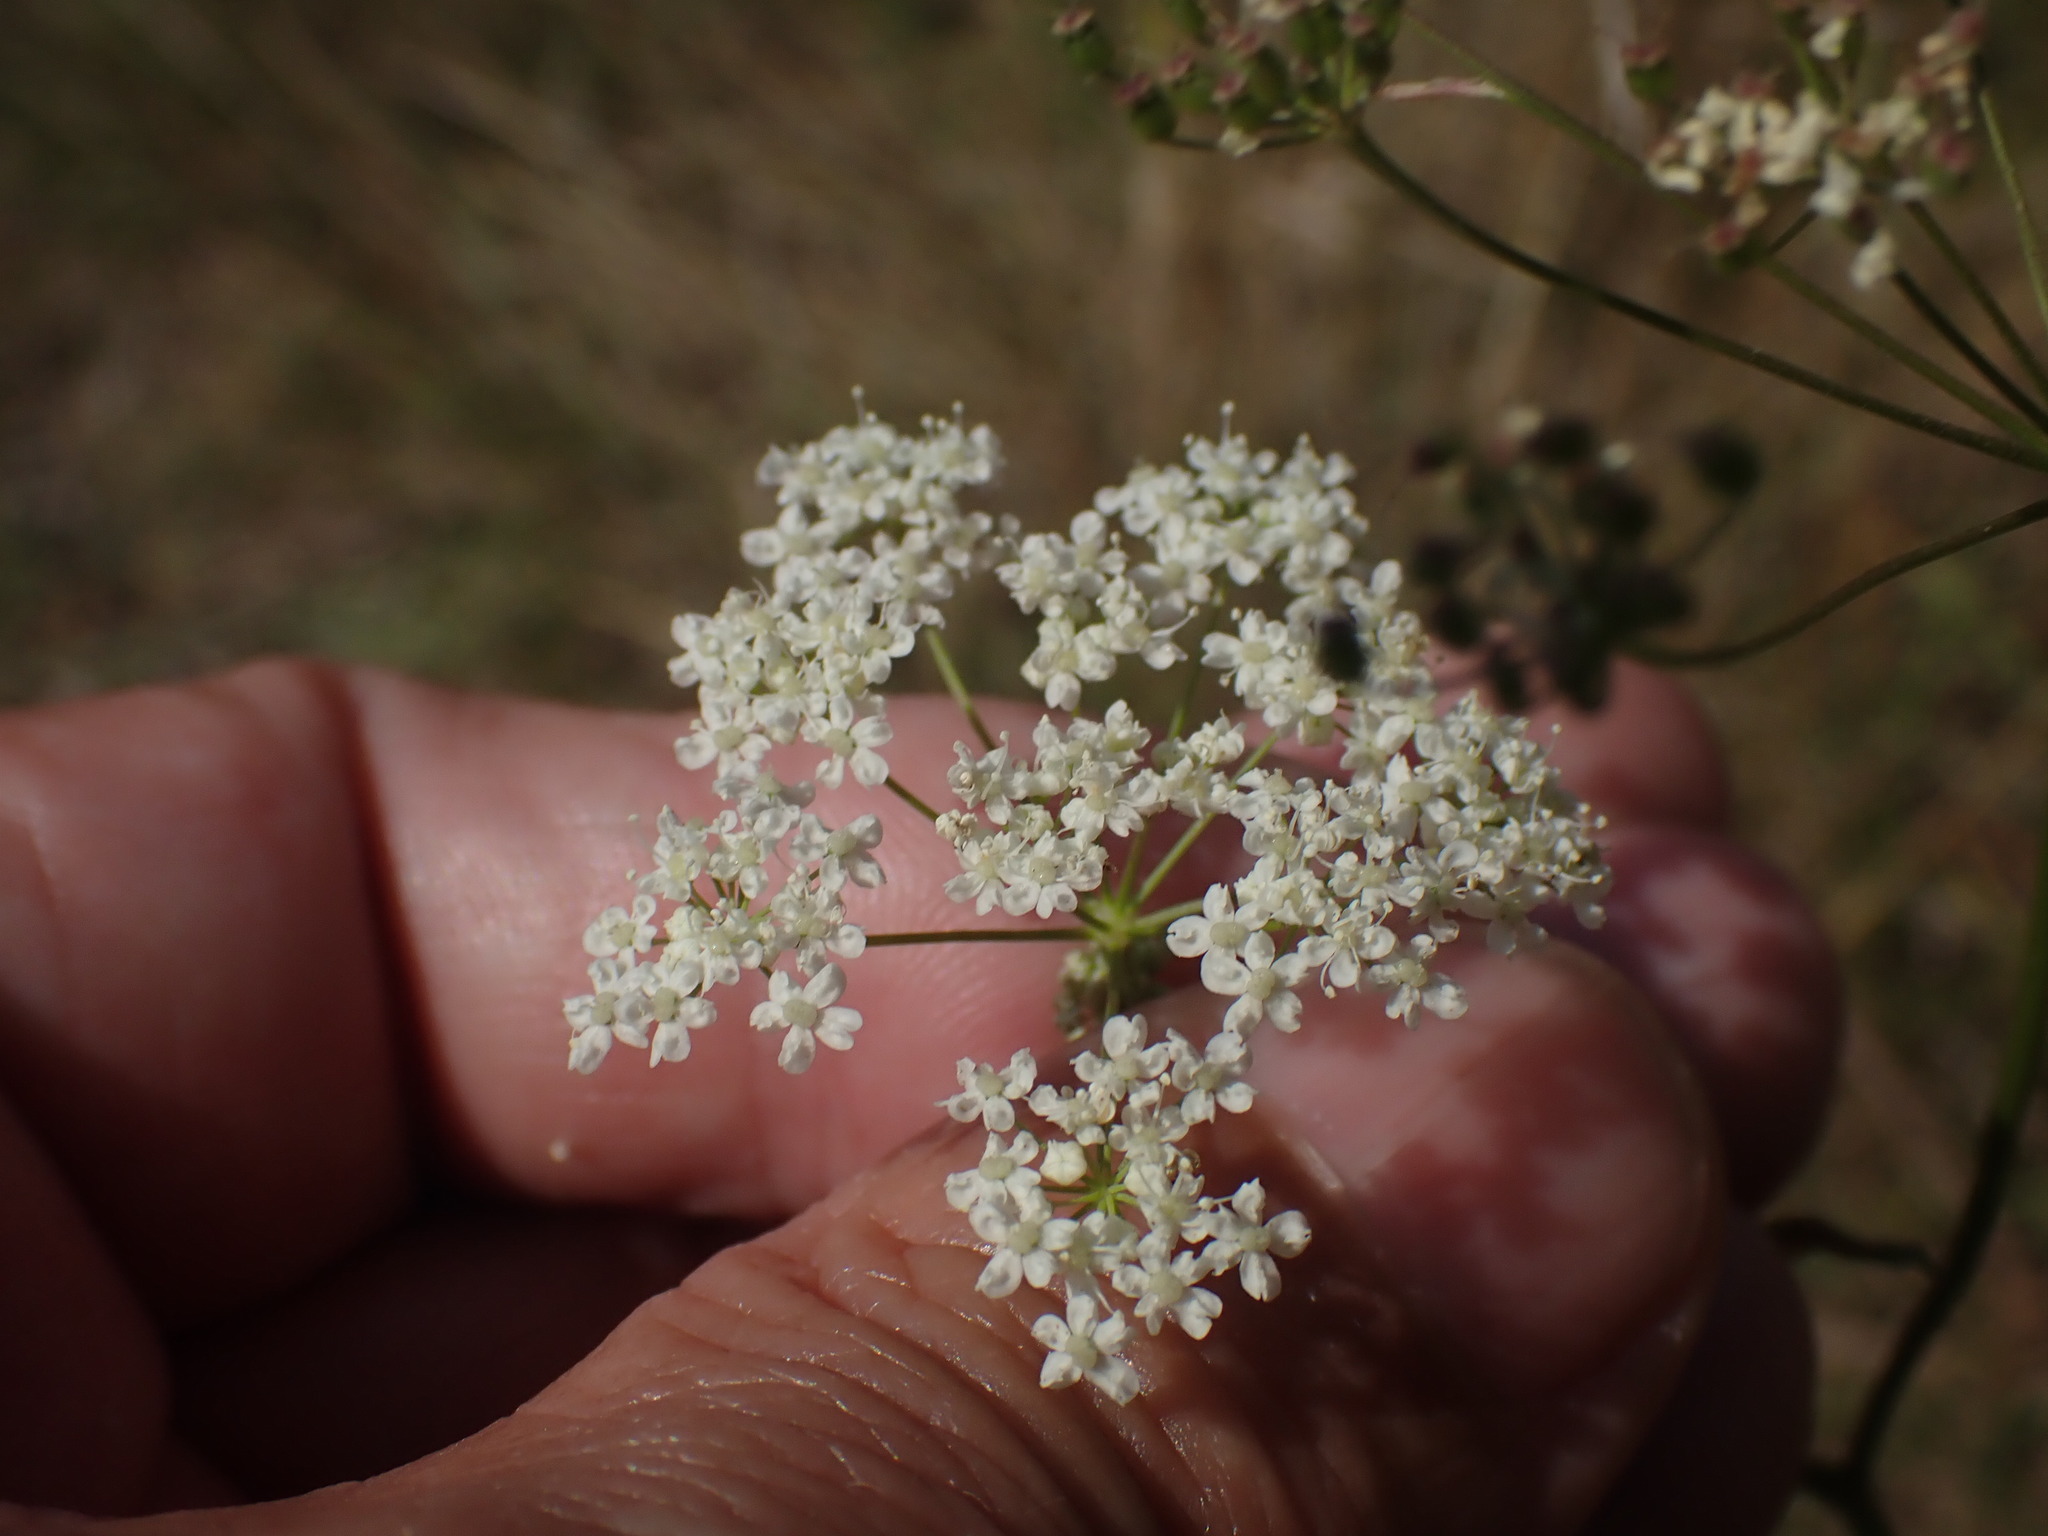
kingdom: Plantae
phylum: Tracheophyta
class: Magnoliopsida
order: Apiales
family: Apiaceae
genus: Pimpinella
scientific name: Pimpinella saxifraga
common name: Burnet-saxifrage
